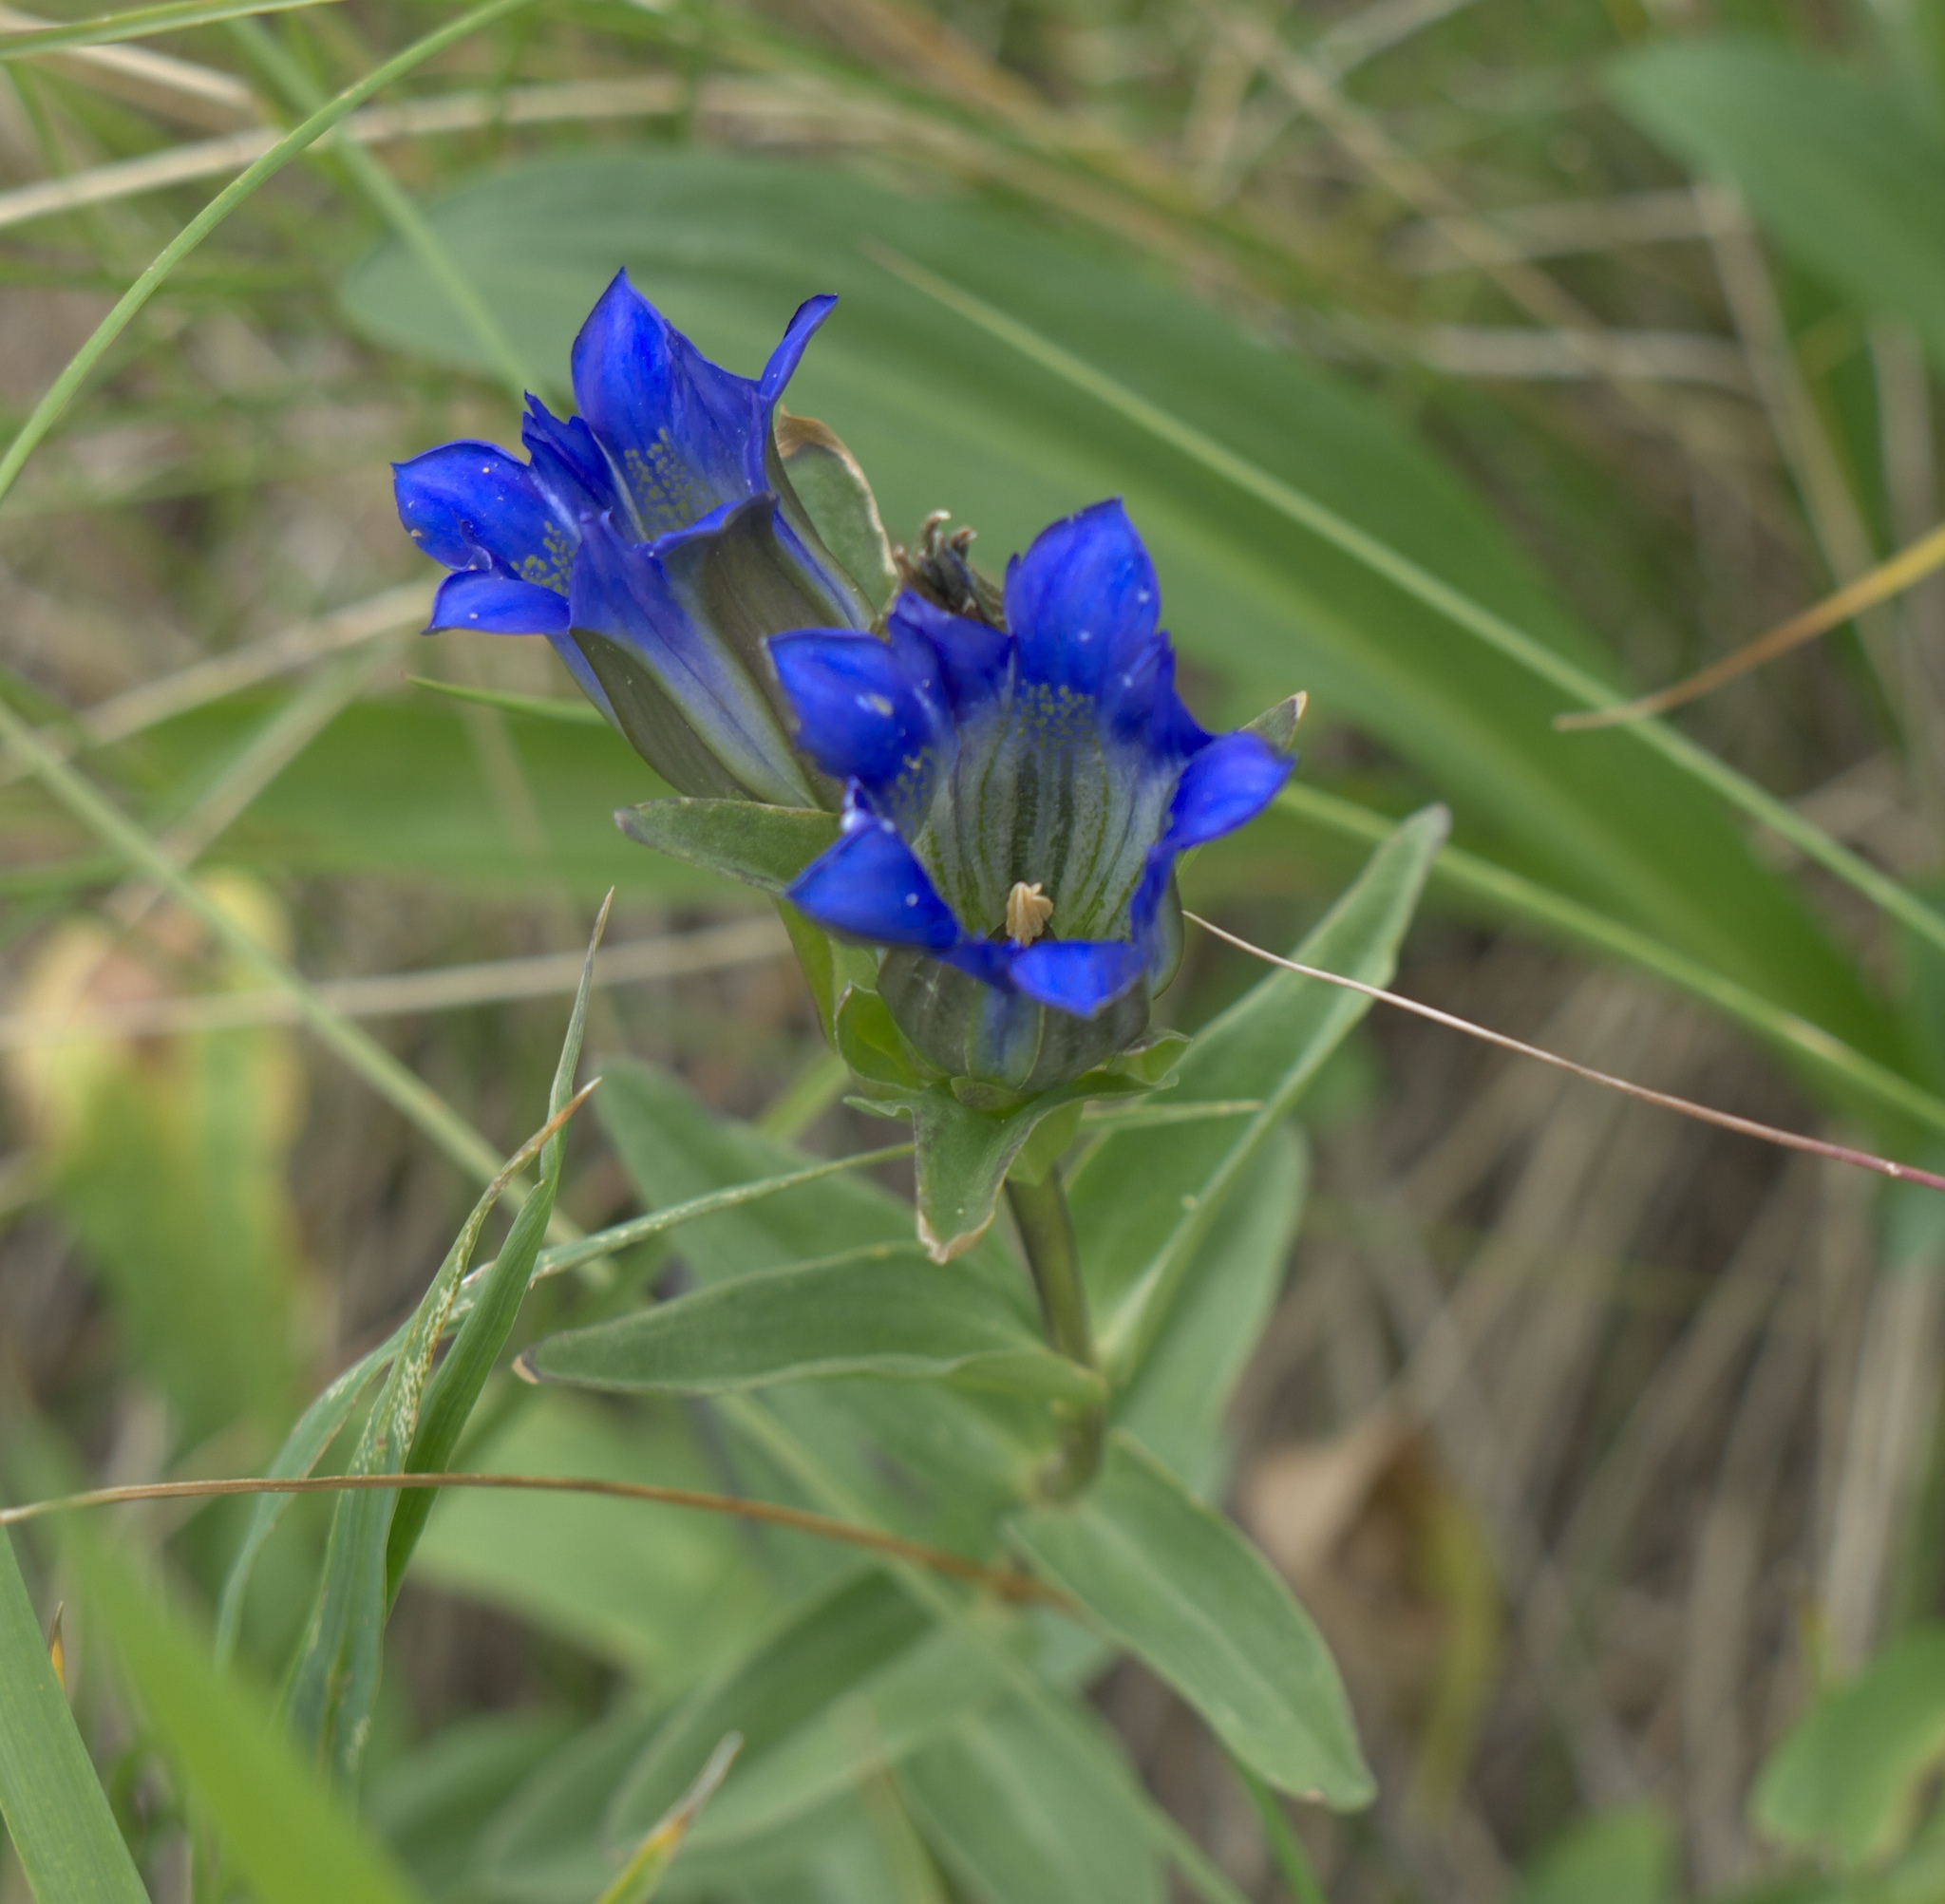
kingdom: Plantae
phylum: Tracheophyta
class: Magnoliopsida
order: Gentianales
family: Gentianaceae
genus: Gentiana
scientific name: Gentiana parryi
